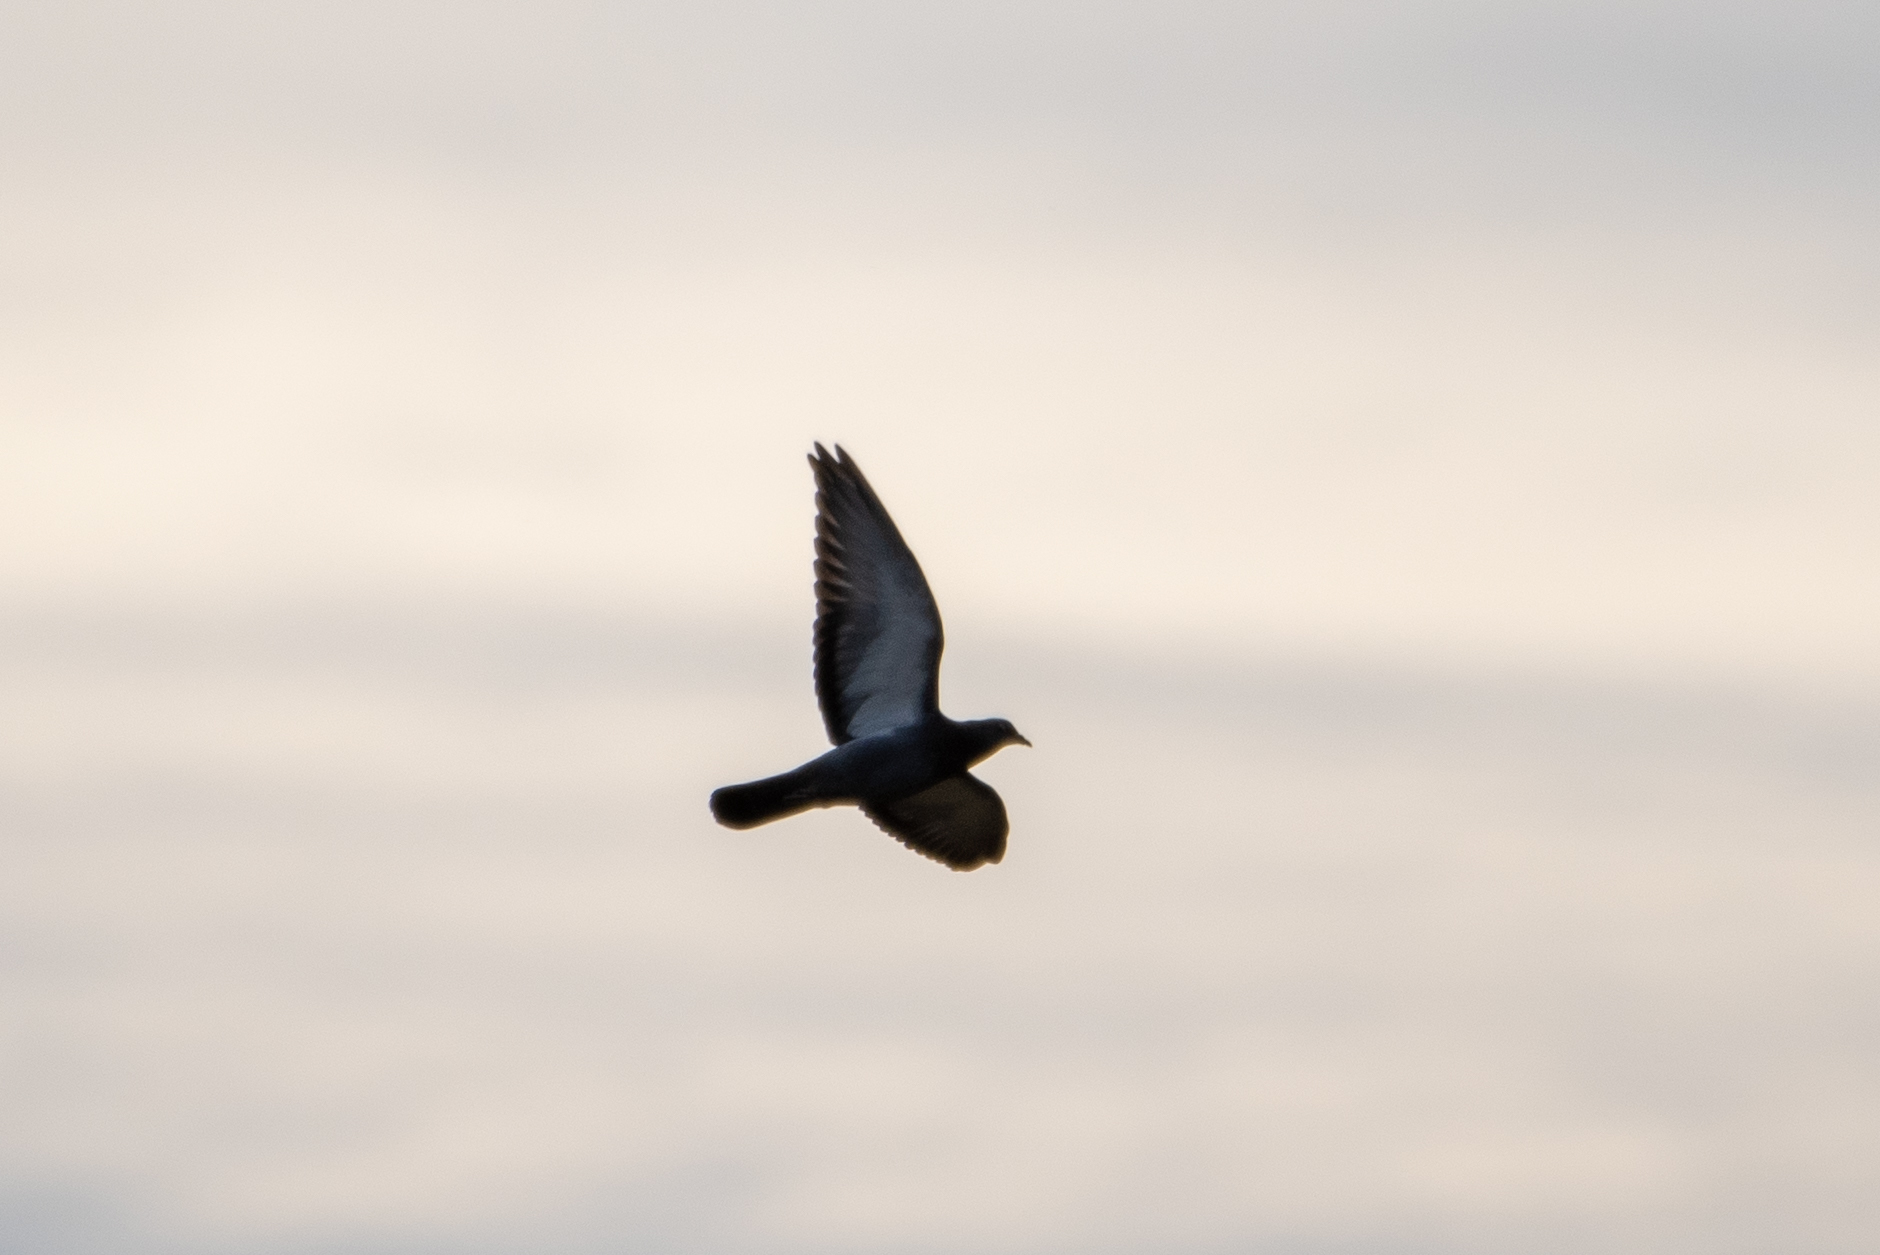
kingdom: Animalia
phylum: Chordata
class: Aves
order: Columbiformes
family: Columbidae
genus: Columba
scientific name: Columba livia
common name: Rock pigeon
